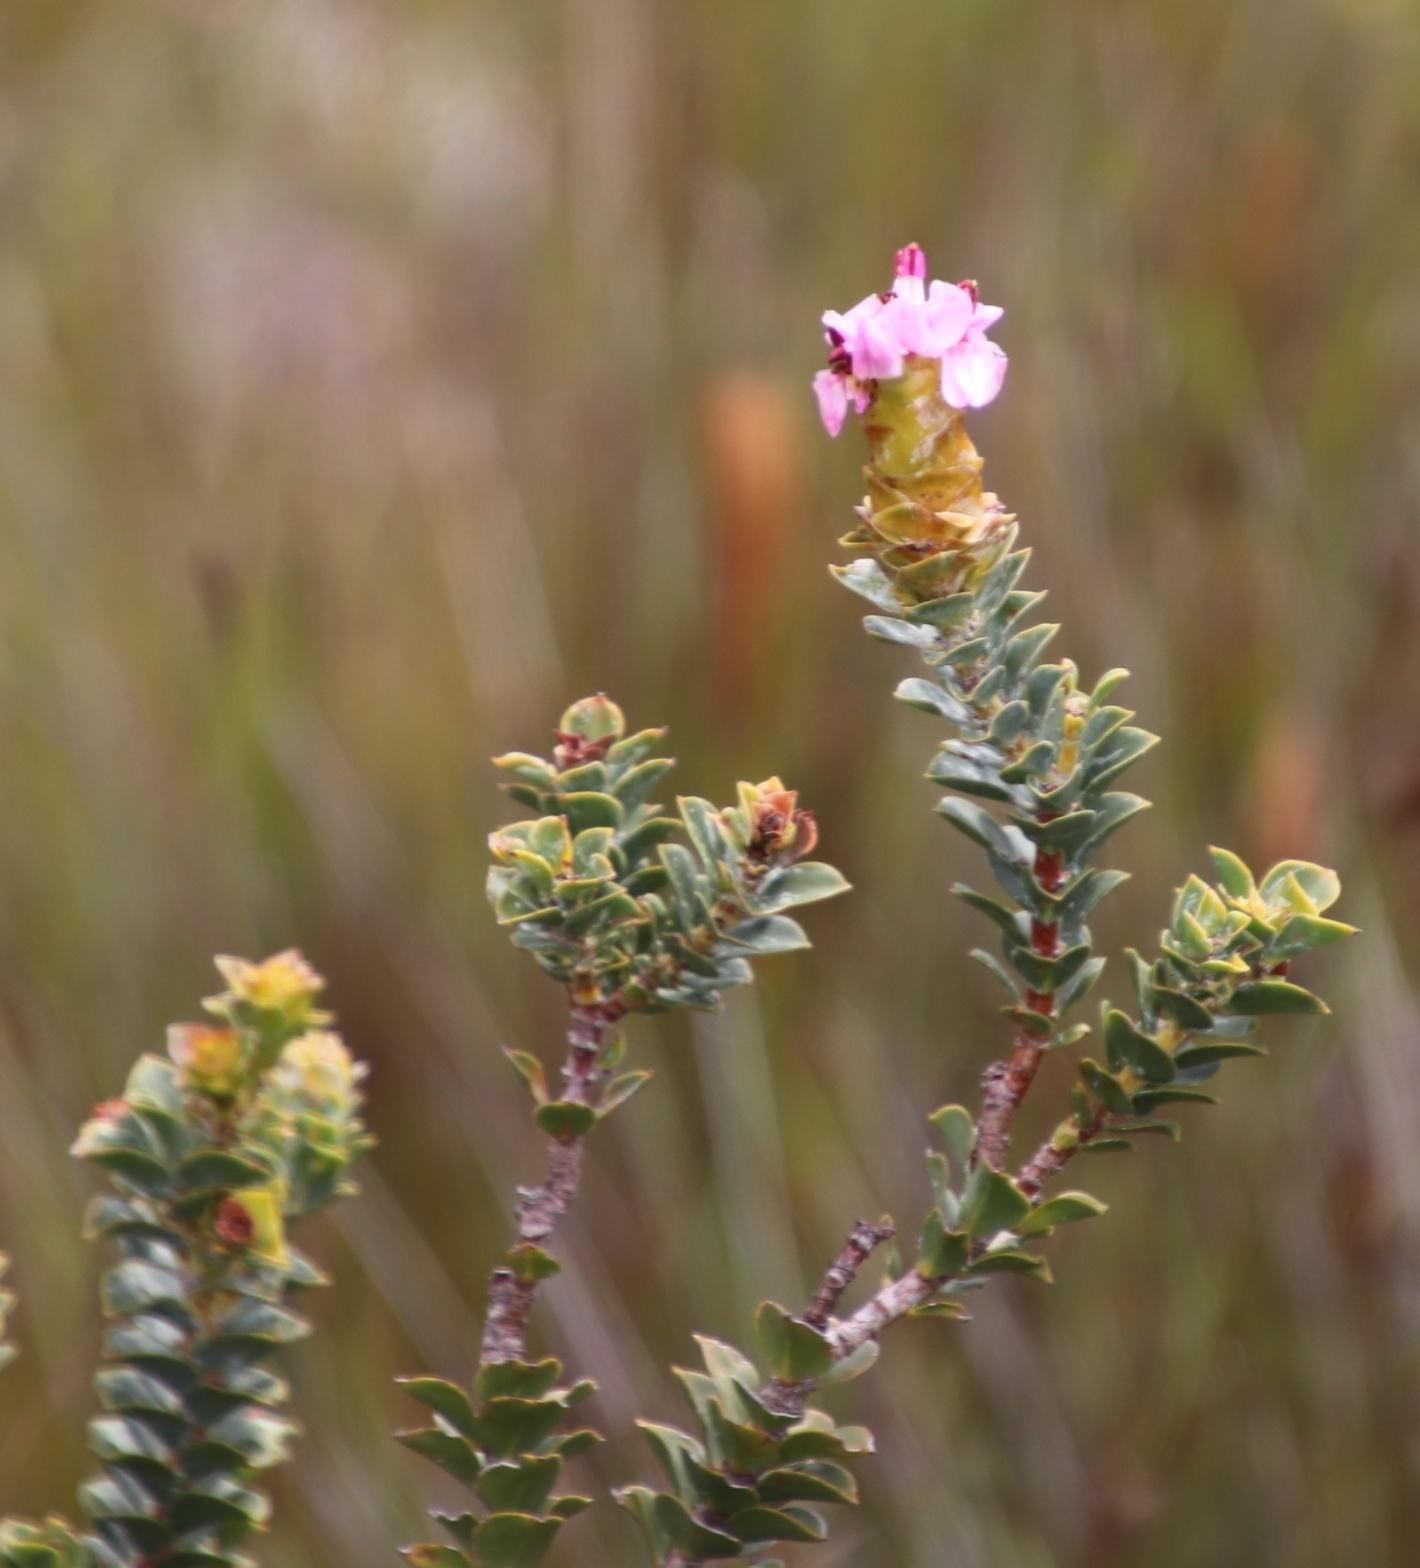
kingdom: Plantae
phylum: Tracheophyta
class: Magnoliopsida
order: Myrtales
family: Penaeaceae
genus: Saltera
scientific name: Saltera sarcocolla
